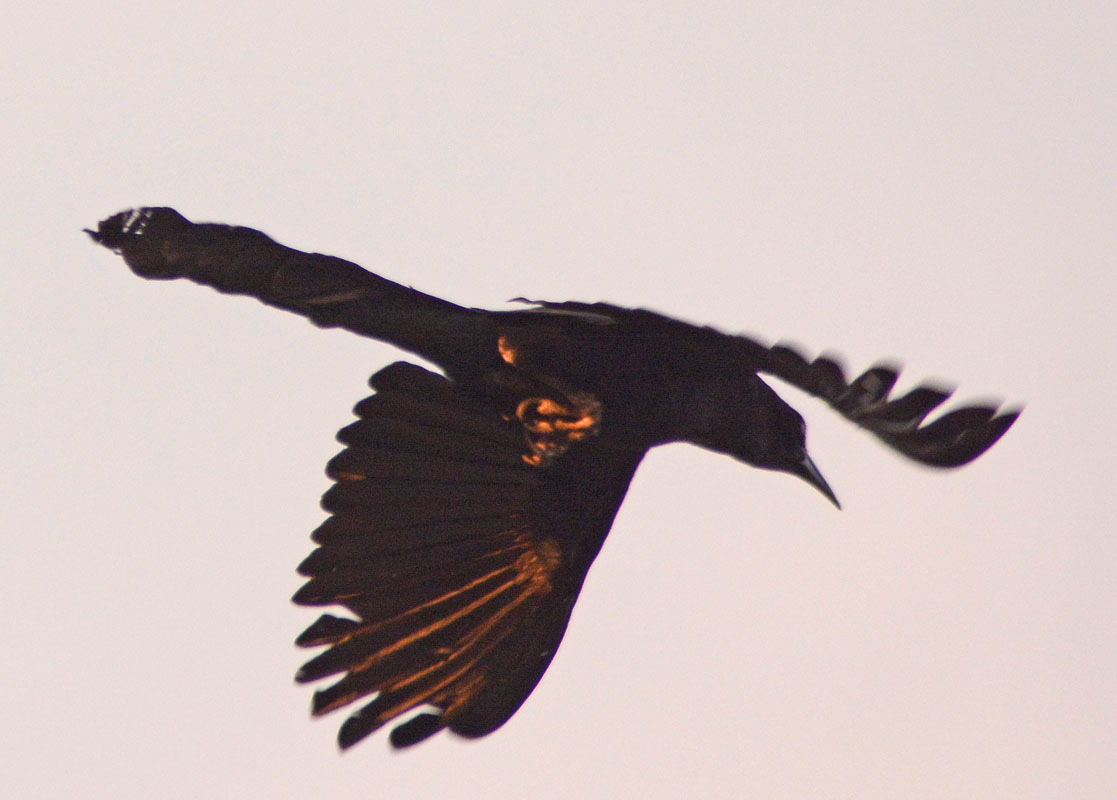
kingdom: Animalia
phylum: Chordata
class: Aves
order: Passeriformes
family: Icteridae
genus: Quiscalus
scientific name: Quiscalus mexicanus
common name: Great-tailed grackle
